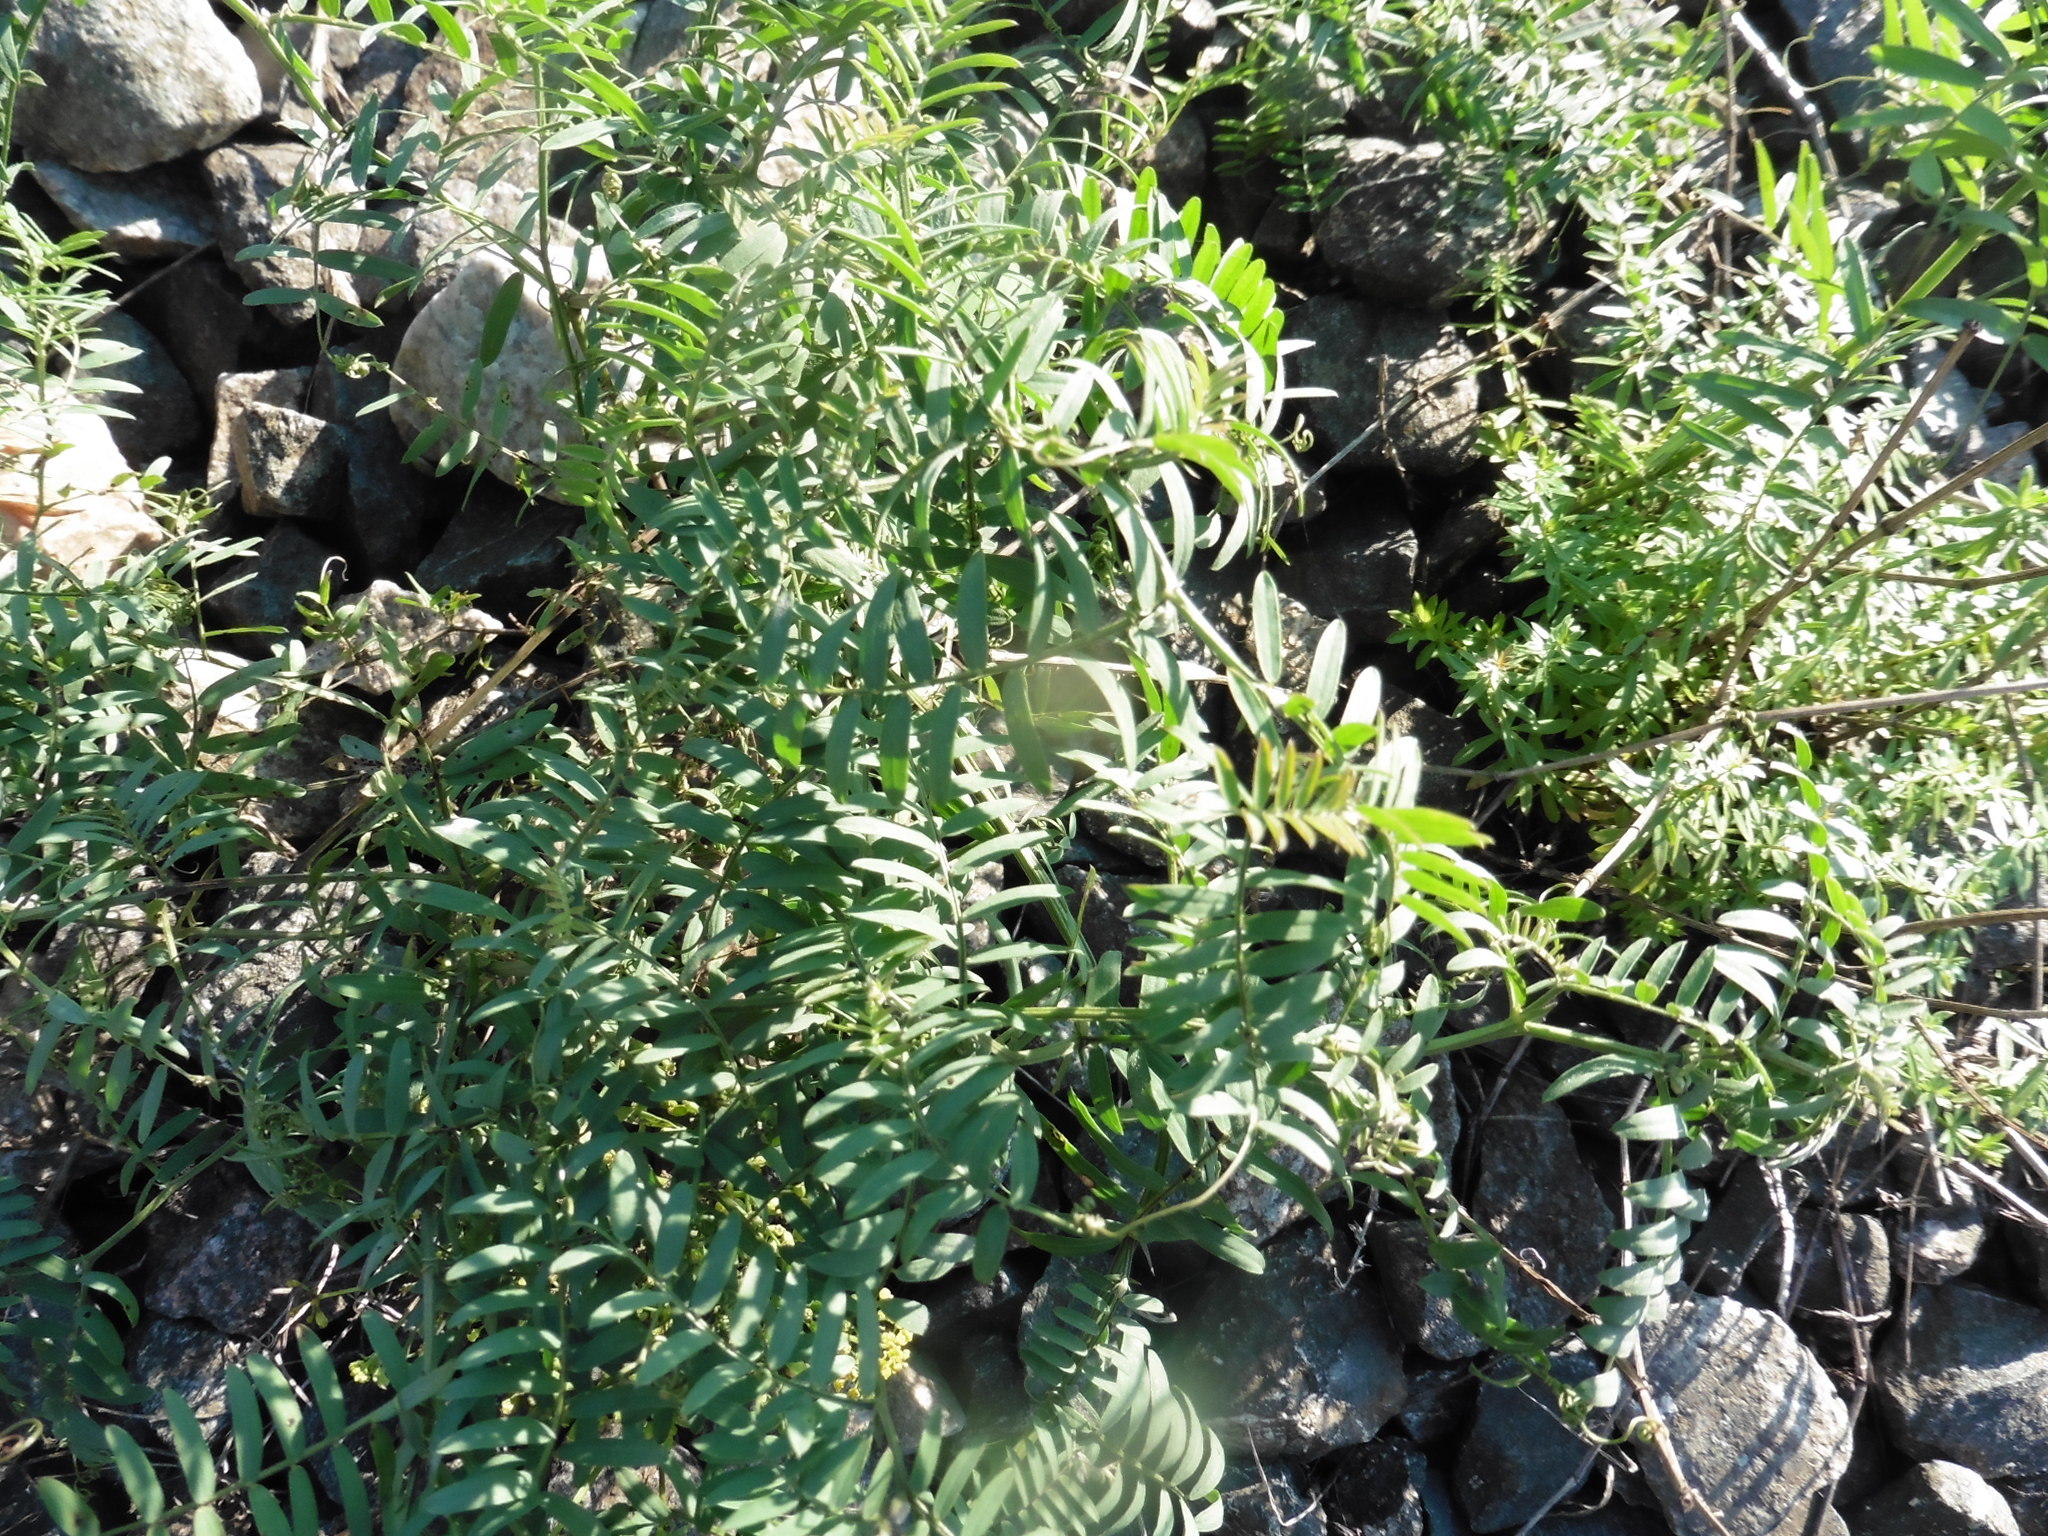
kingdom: Plantae
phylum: Tracheophyta
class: Magnoliopsida
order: Fabales
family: Fabaceae
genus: Vicia
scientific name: Vicia cracca
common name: Bird vetch
